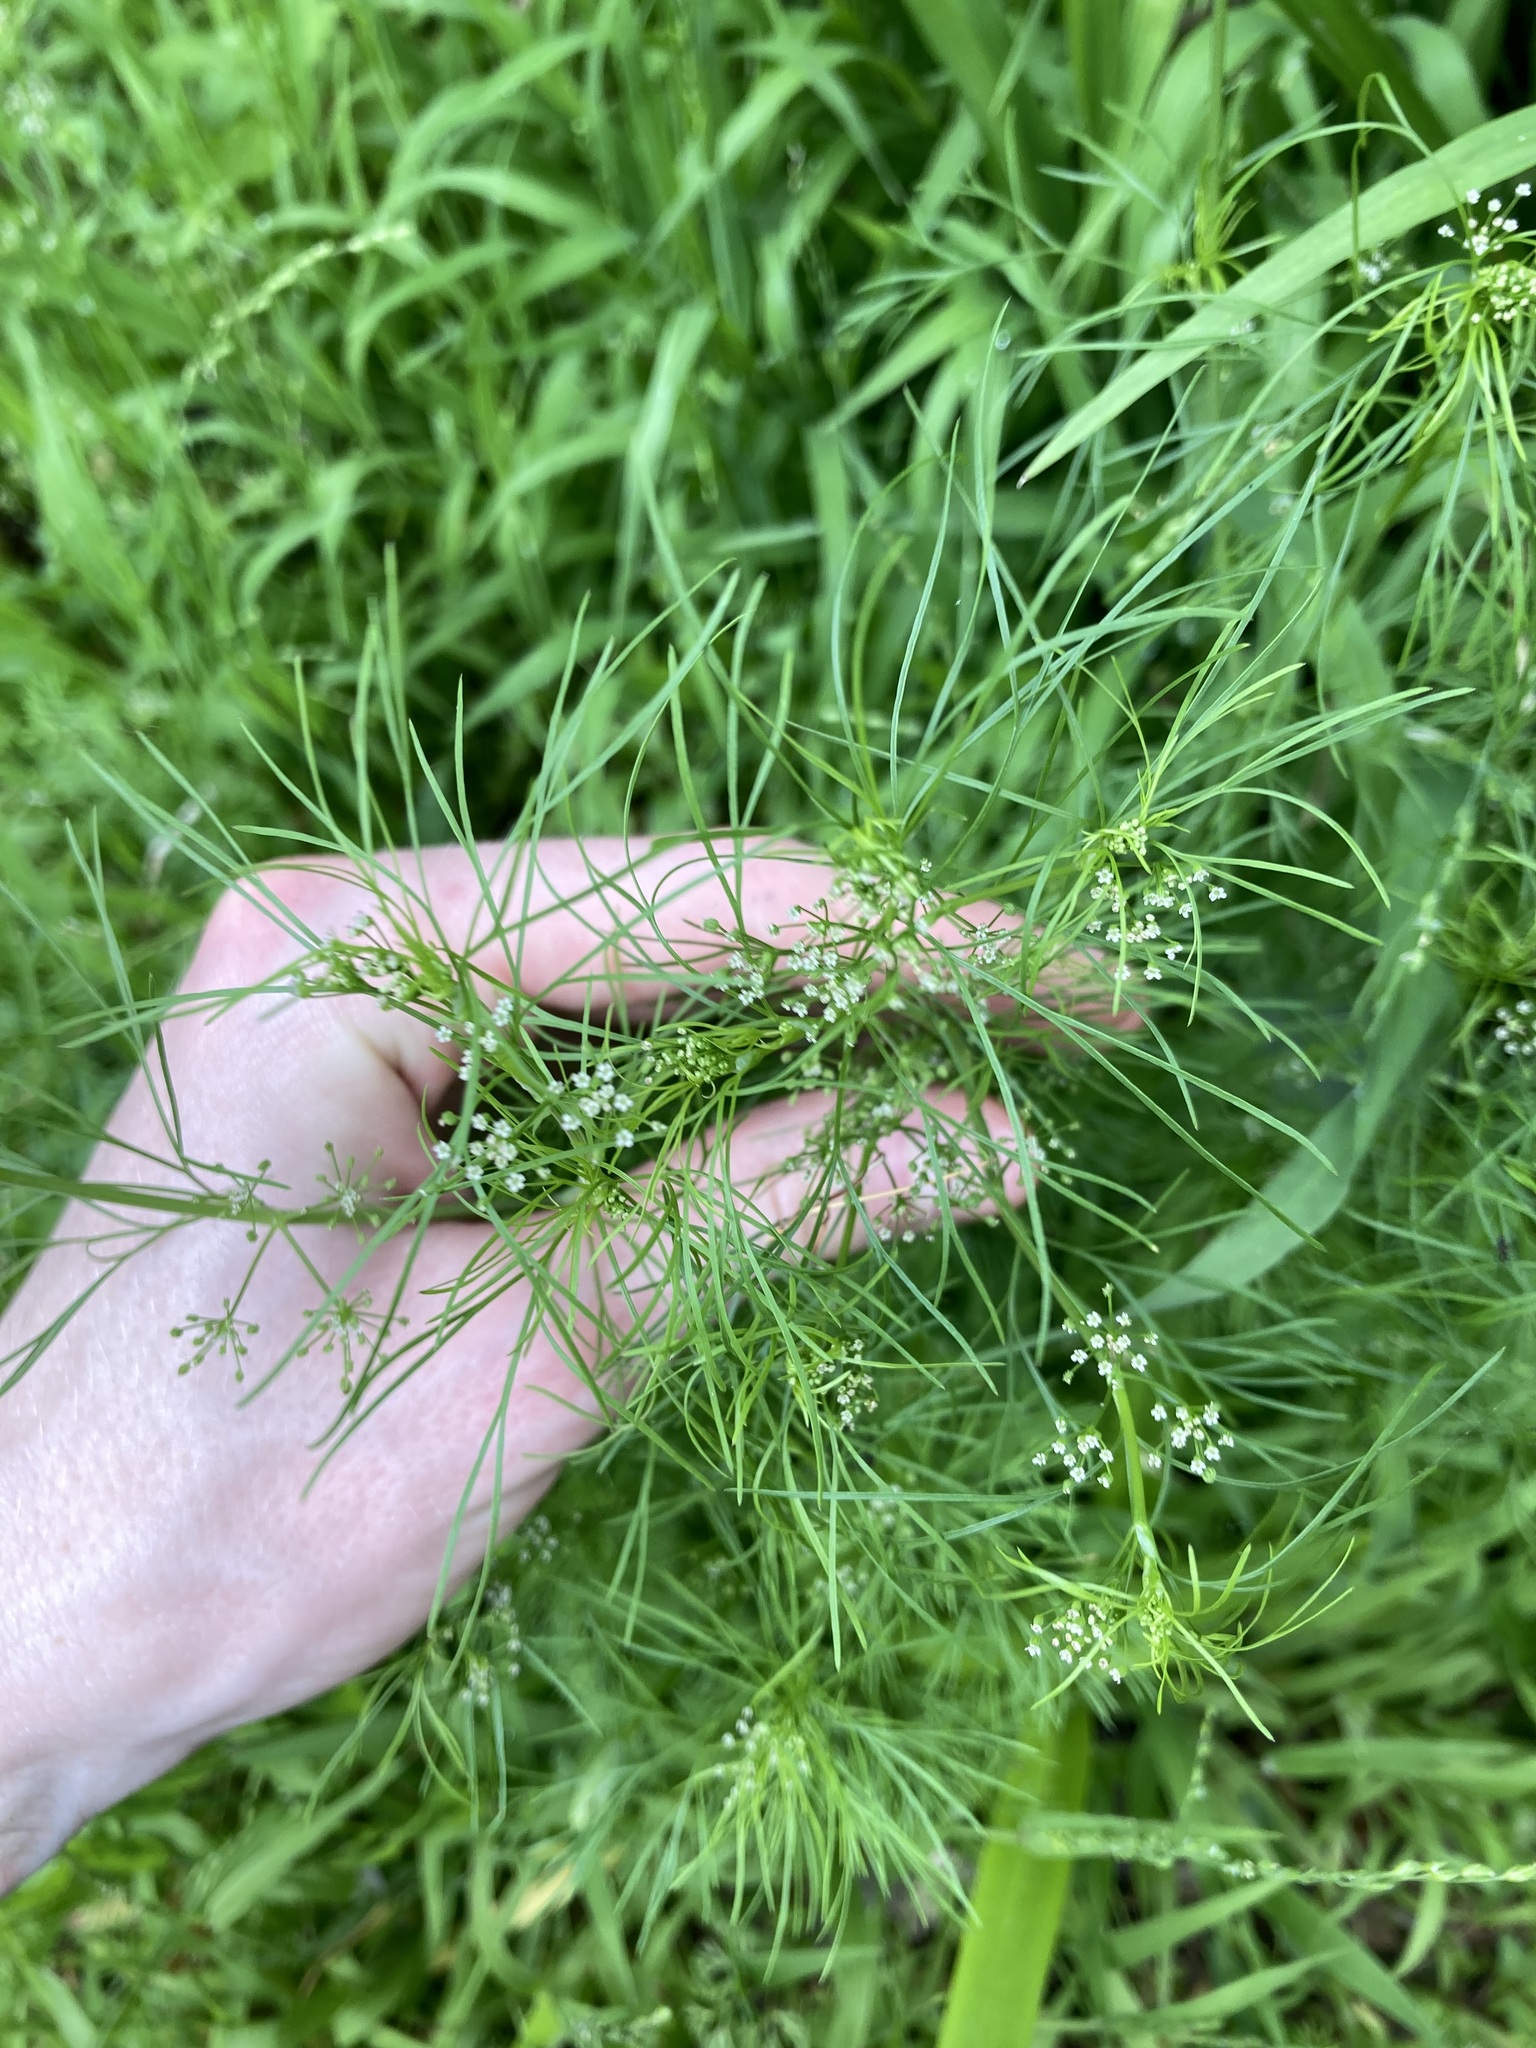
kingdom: Plantae
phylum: Tracheophyta
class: Magnoliopsida
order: Apiales
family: Apiaceae
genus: Cyclospermum
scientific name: Cyclospermum leptophyllum
